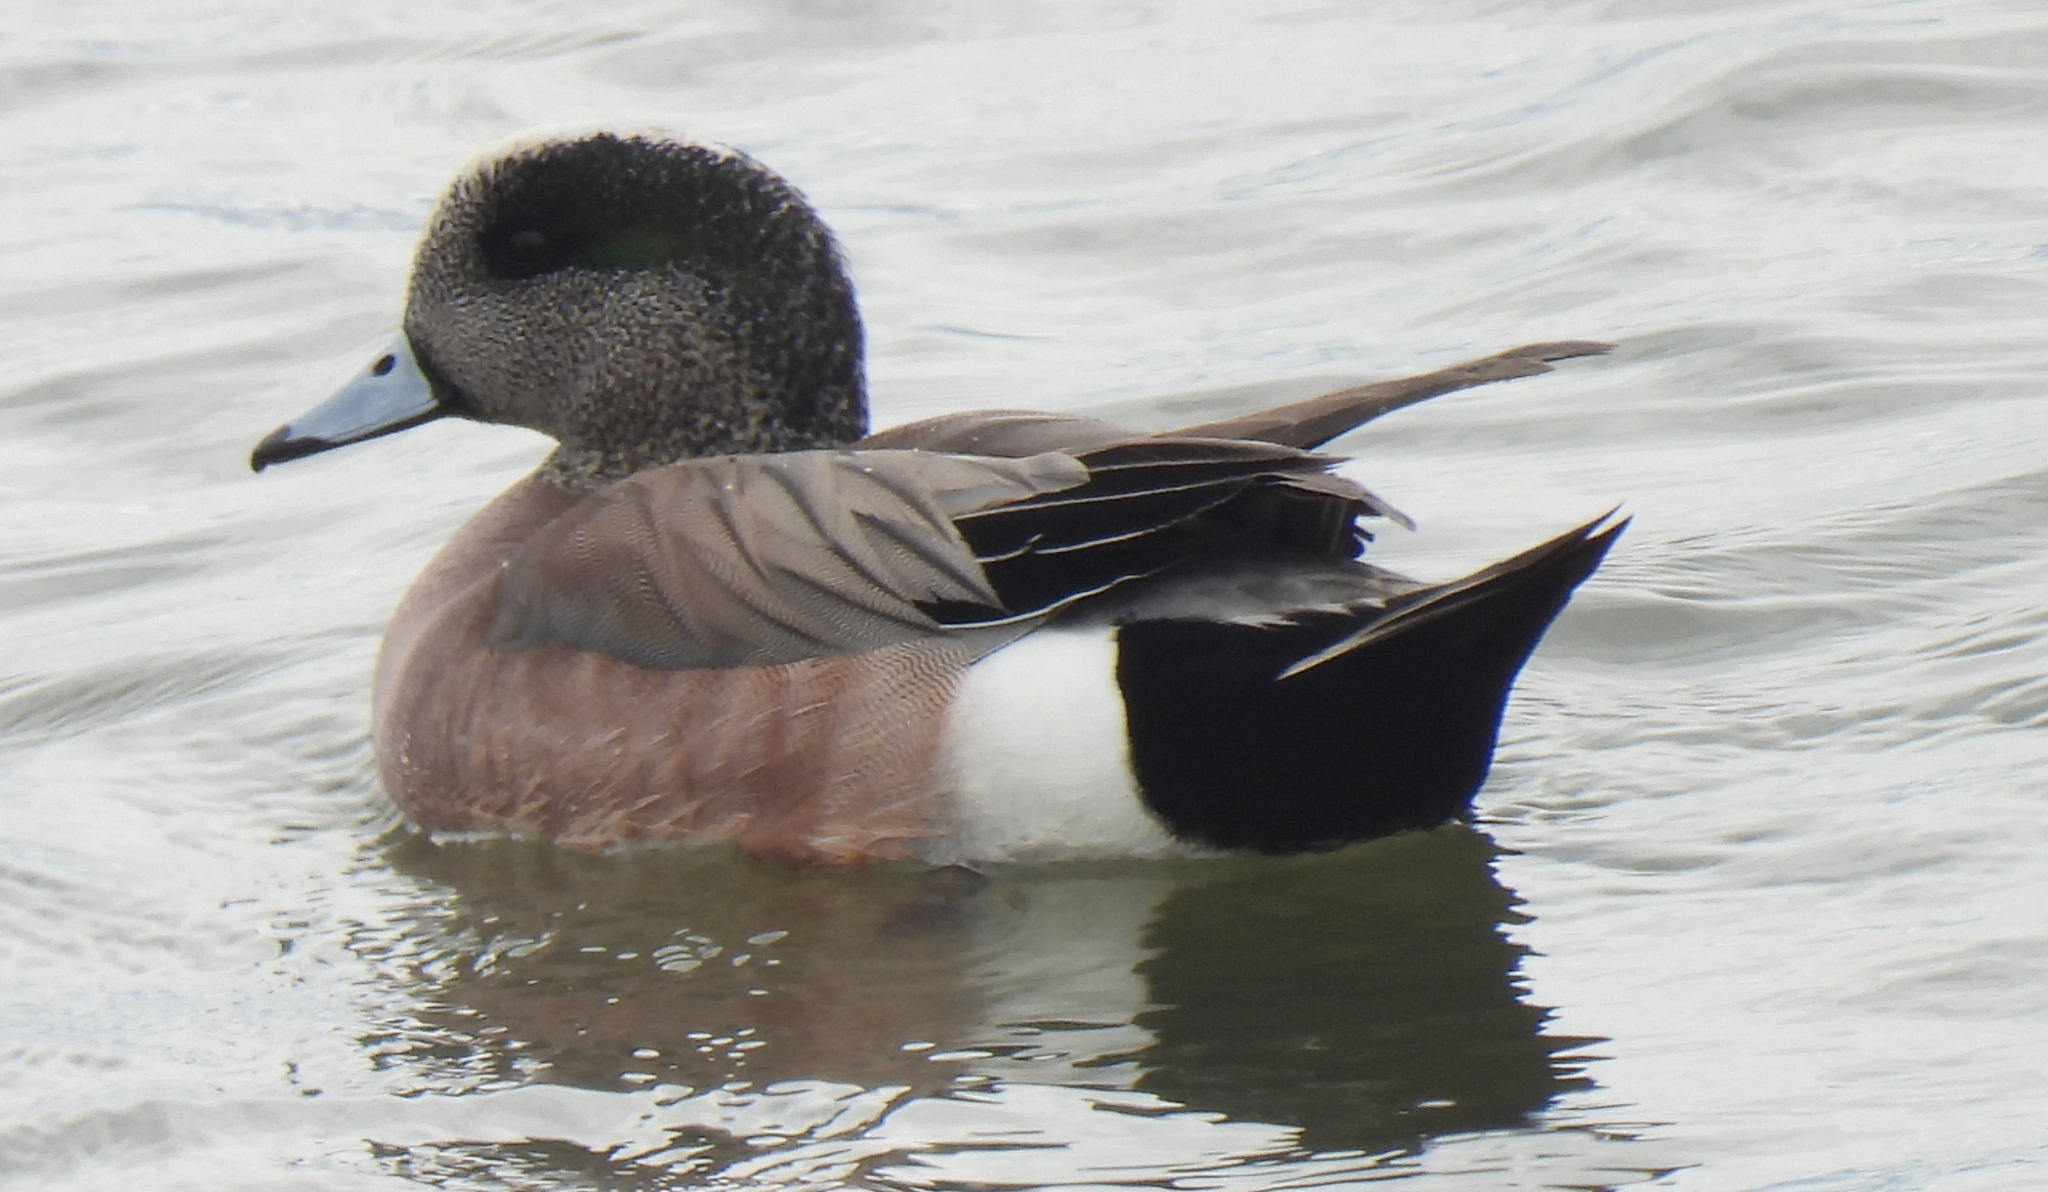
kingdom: Animalia
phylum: Chordata
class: Aves
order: Anseriformes
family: Anatidae
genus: Mareca
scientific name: Mareca americana
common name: American wigeon
